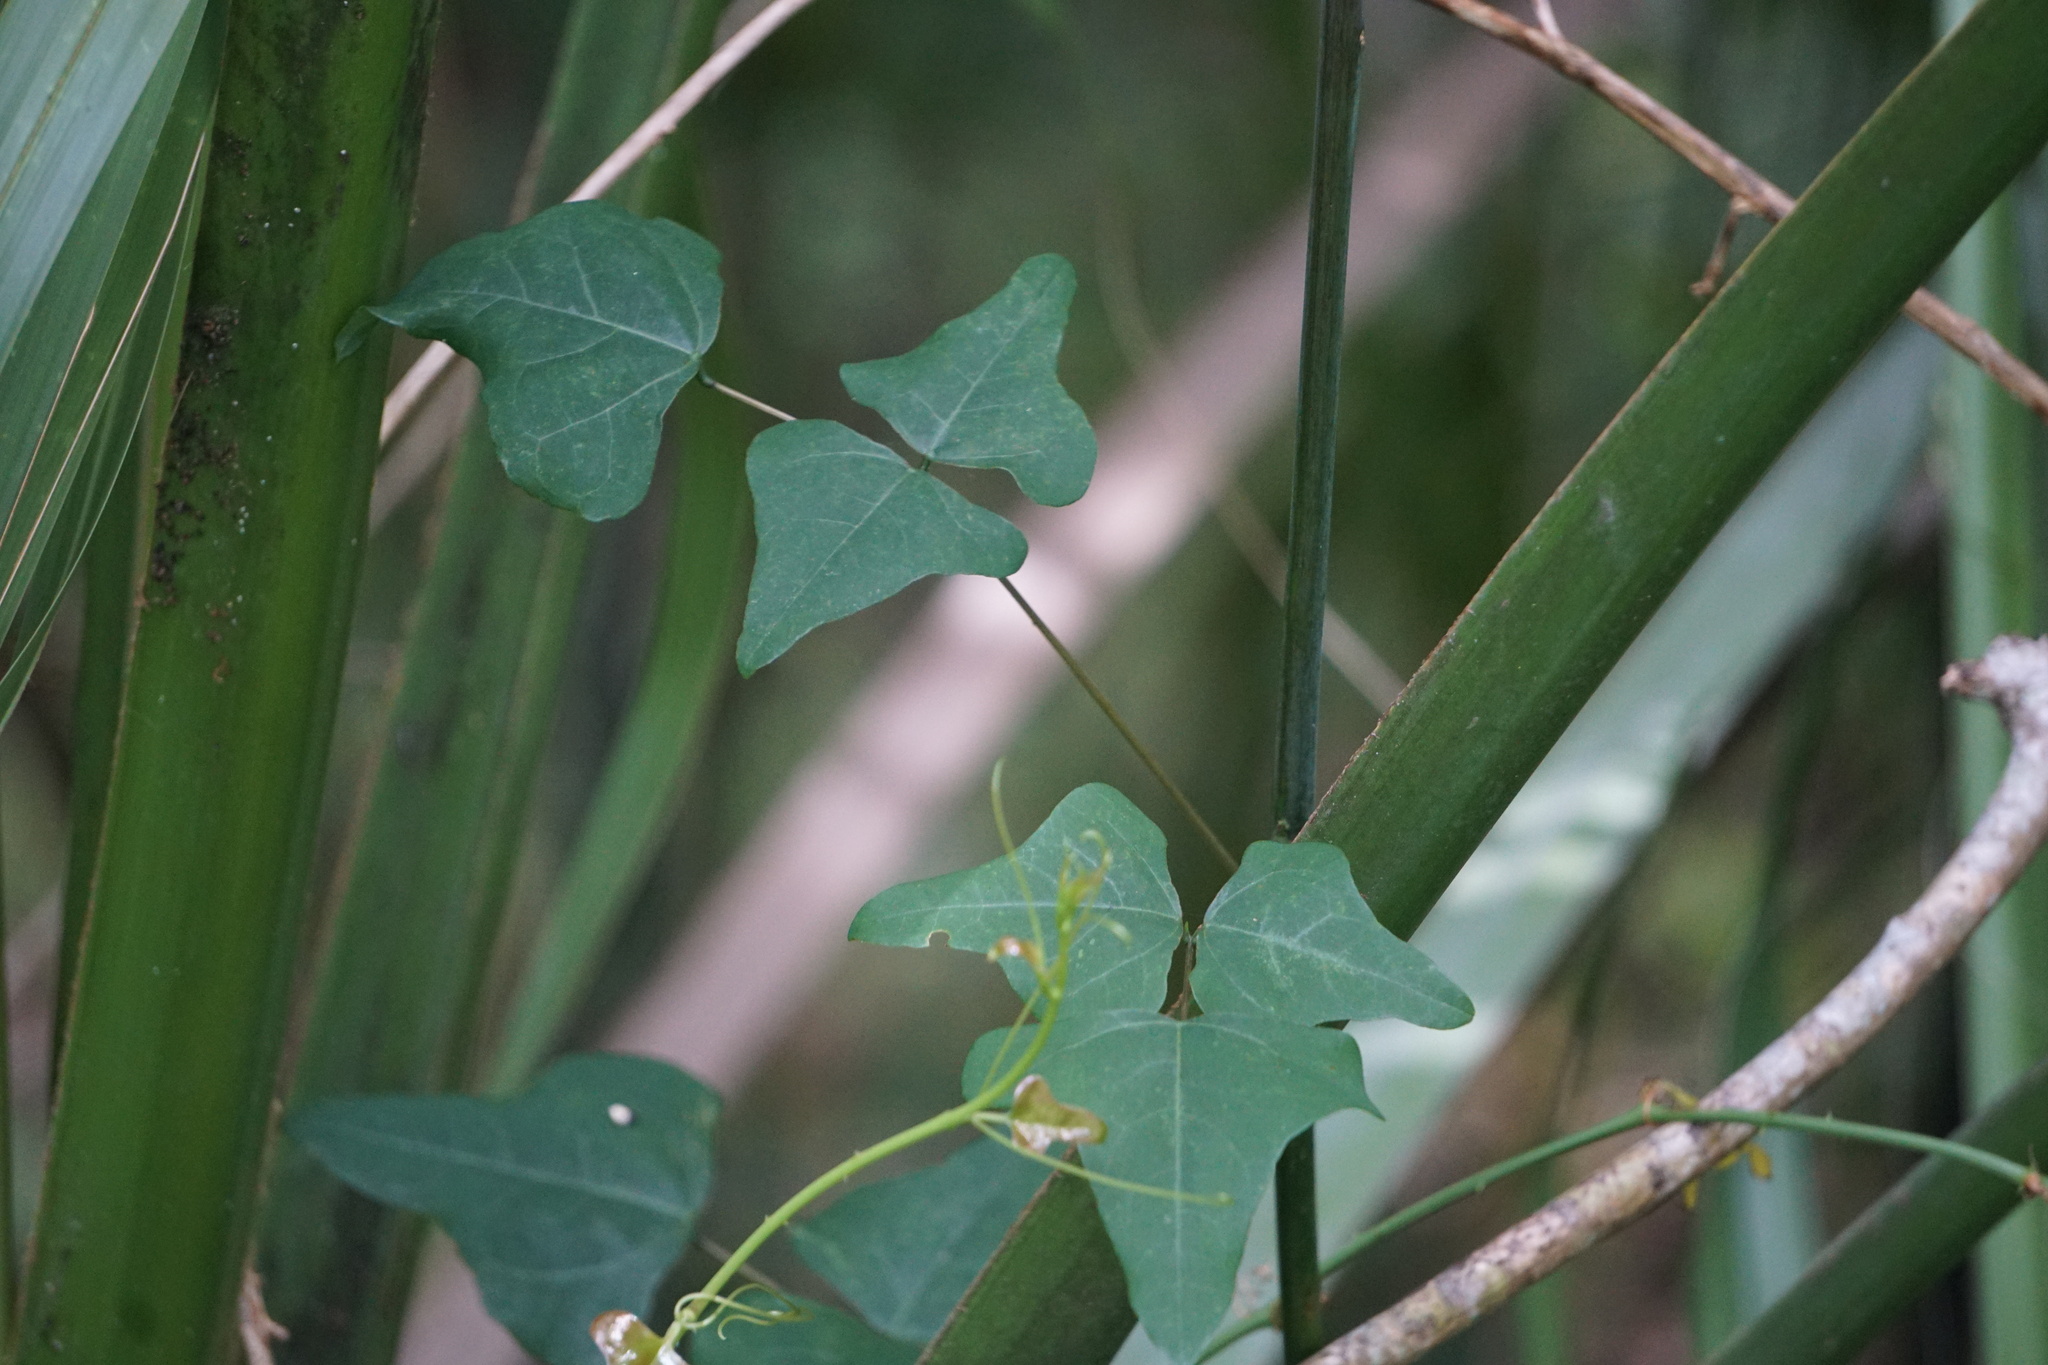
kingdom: Plantae
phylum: Tracheophyta
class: Magnoliopsida
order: Fabales
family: Fabaceae
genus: Erythrina
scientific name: Erythrina herbacea
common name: Coral-bean
